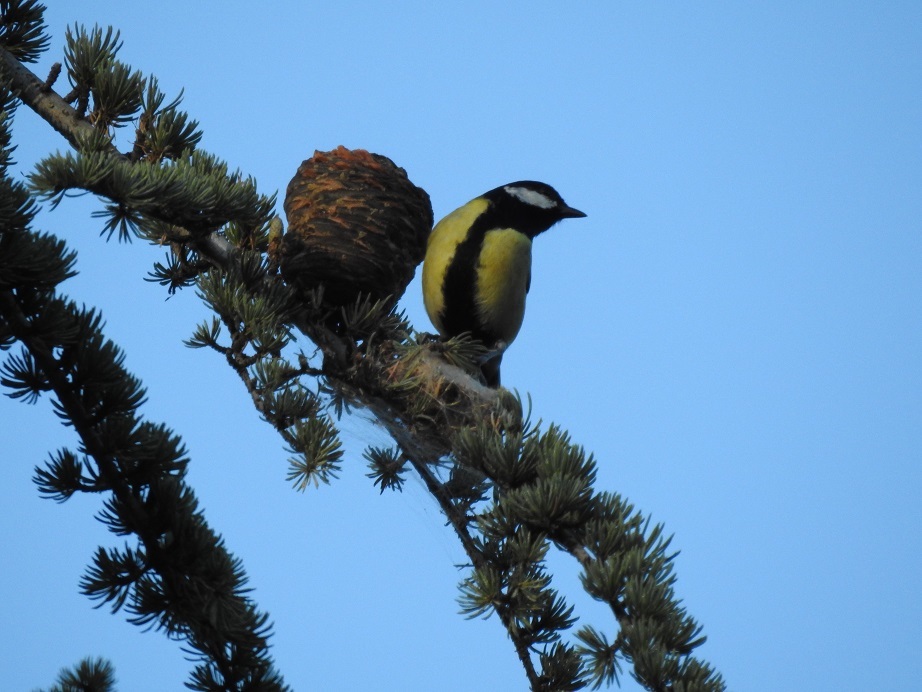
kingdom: Animalia
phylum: Chordata
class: Aves
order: Passeriformes
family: Paridae
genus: Parus
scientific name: Parus major
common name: Great tit
